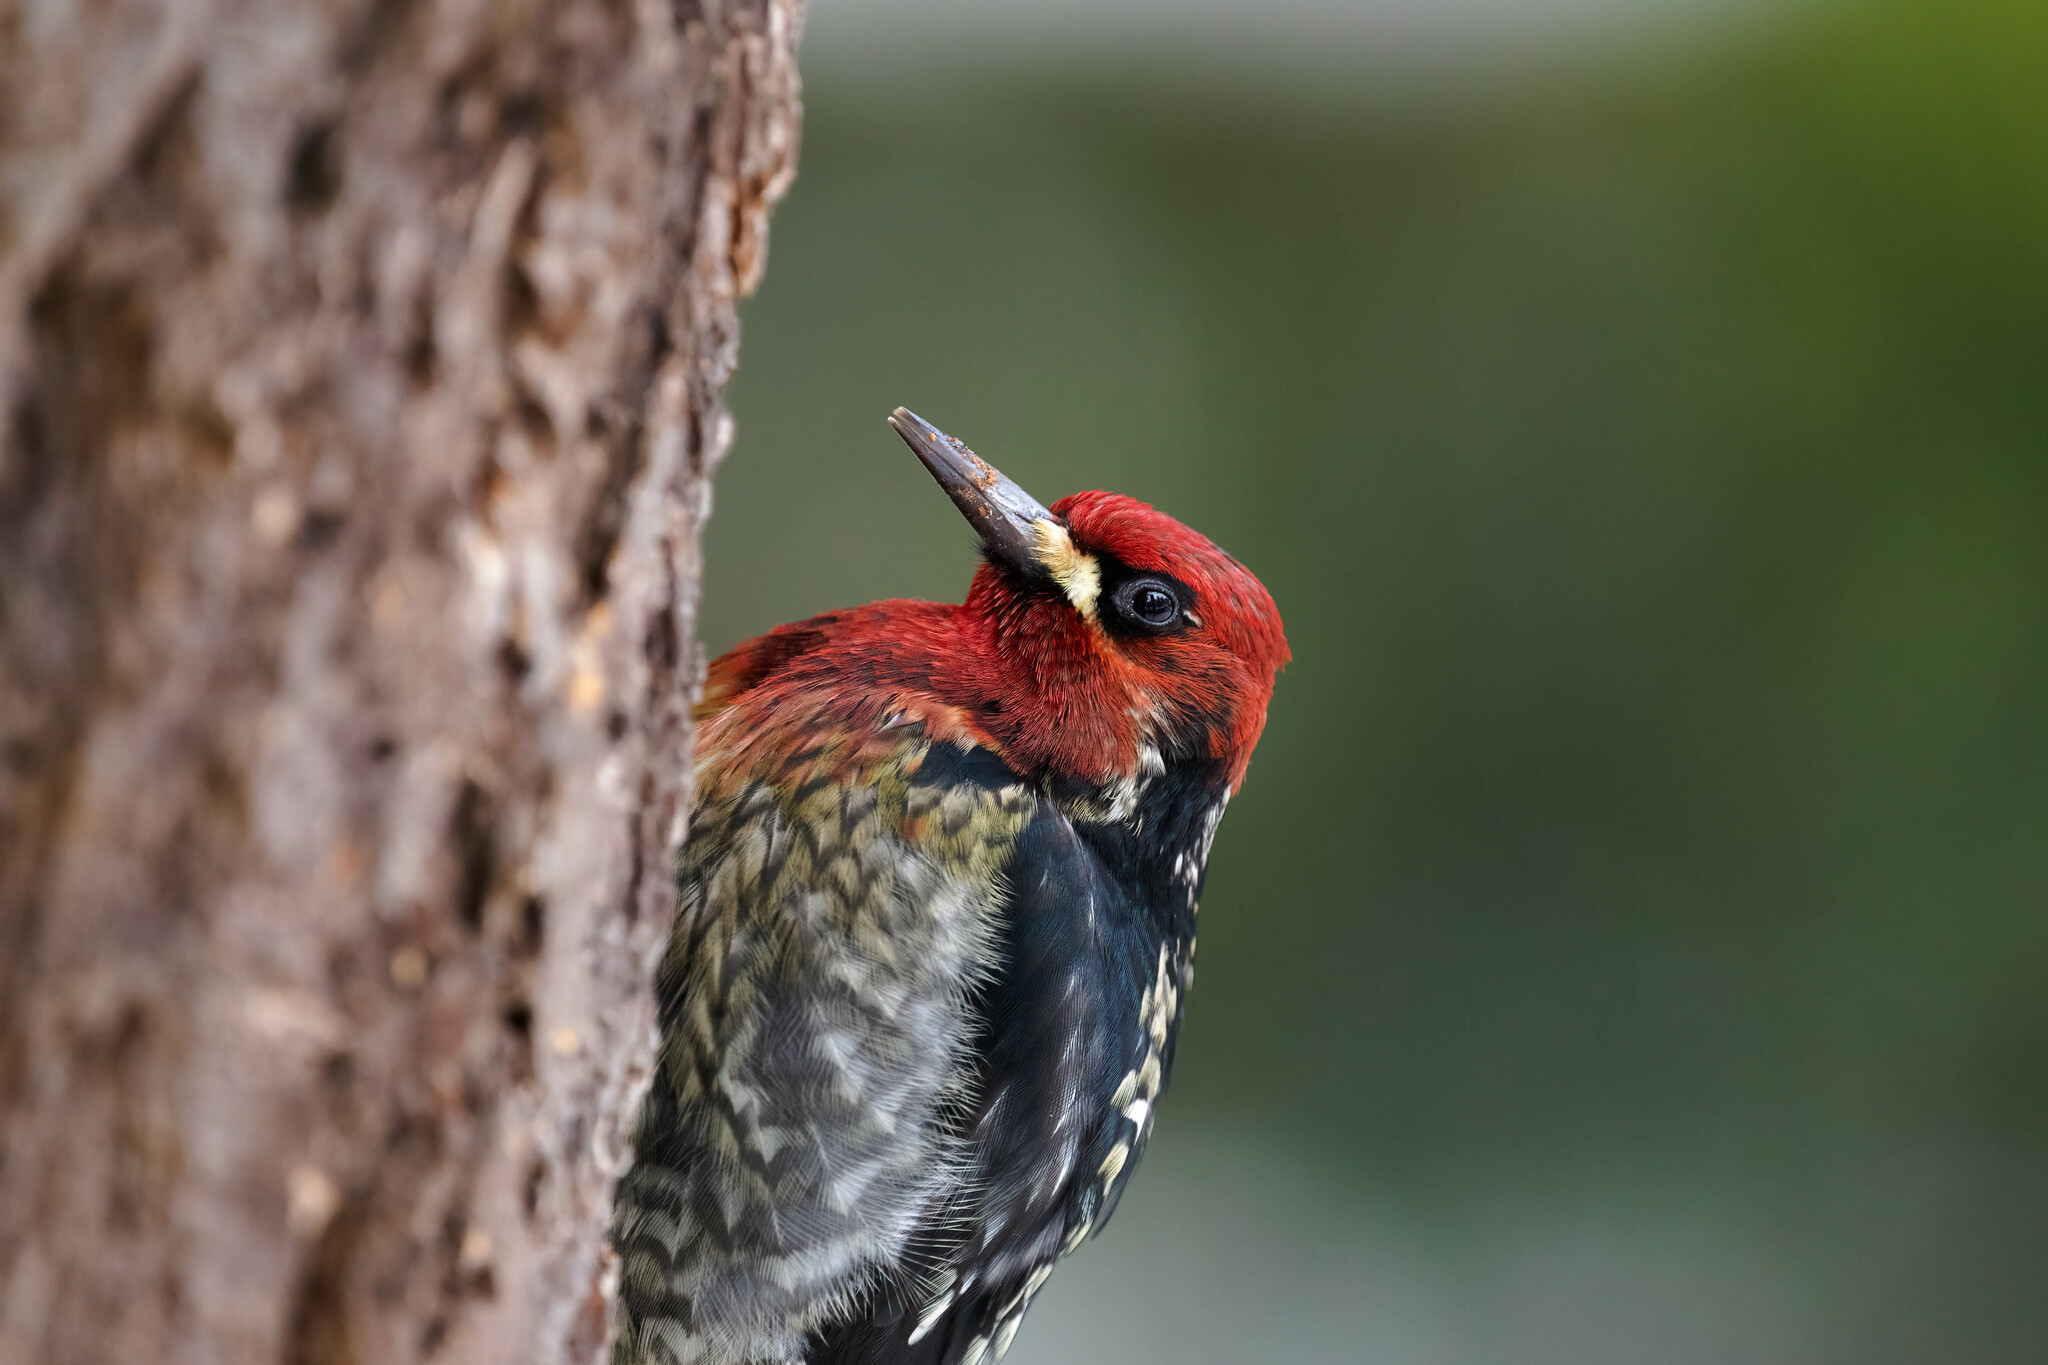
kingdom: Animalia
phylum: Chordata
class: Aves
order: Piciformes
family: Picidae
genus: Sphyrapicus
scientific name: Sphyrapicus ruber
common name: Red-breasted sapsucker
